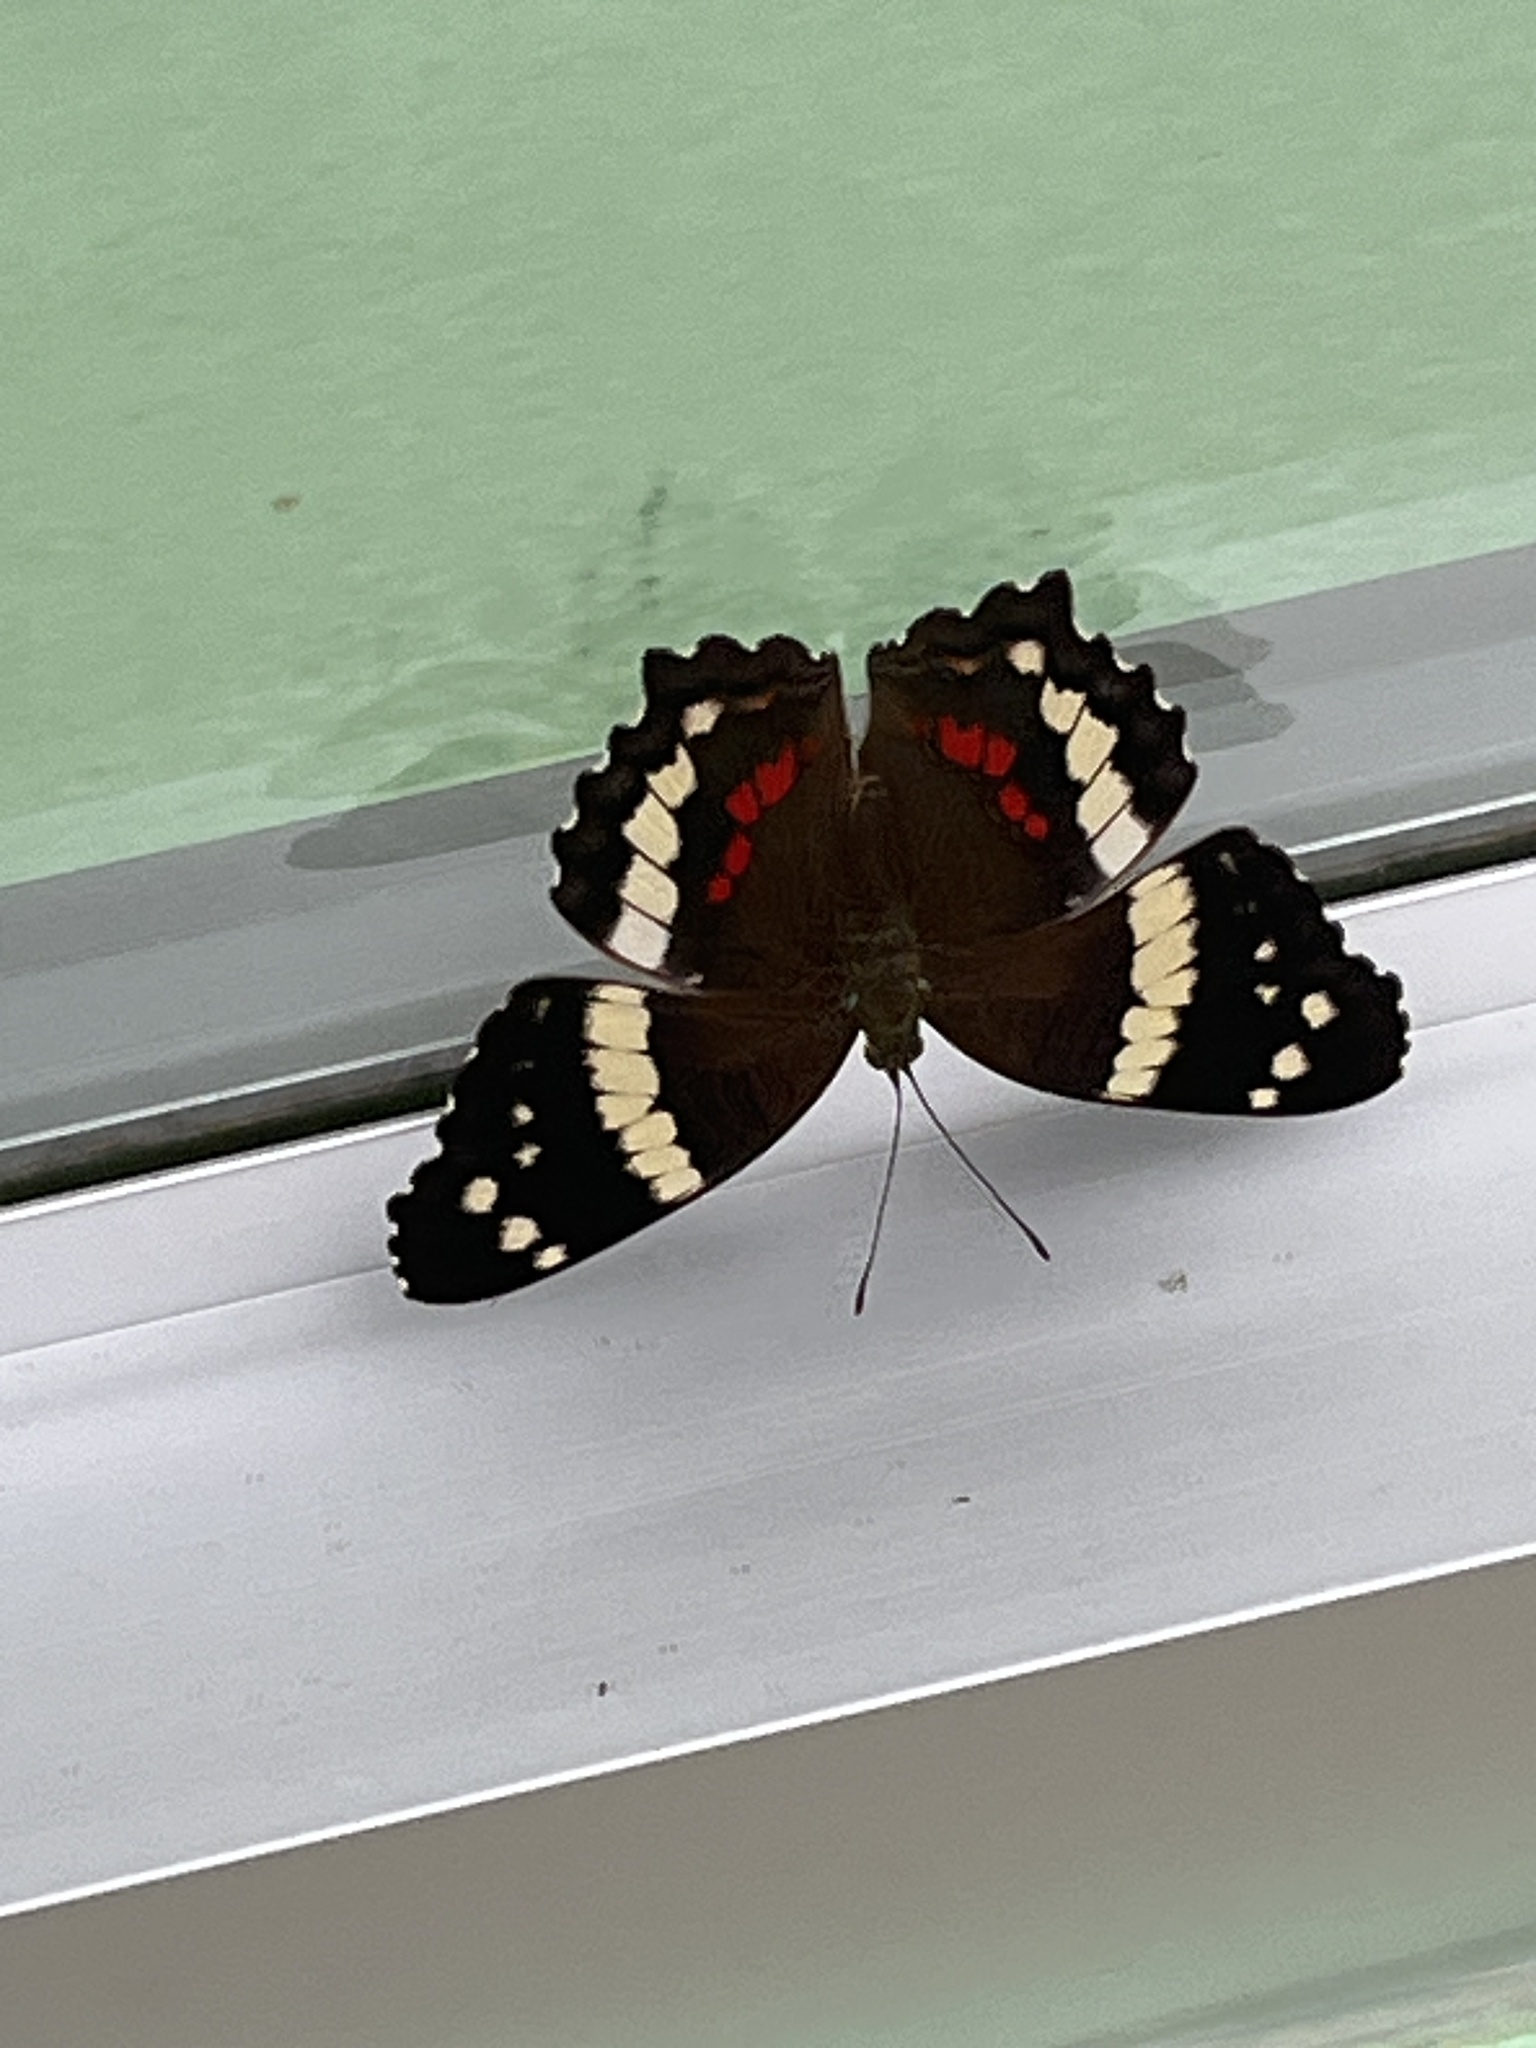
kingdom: Animalia
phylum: Arthropoda
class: Insecta
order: Lepidoptera
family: Nymphalidae
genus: Anartia
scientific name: Anartia fatima
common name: Banded peacock
